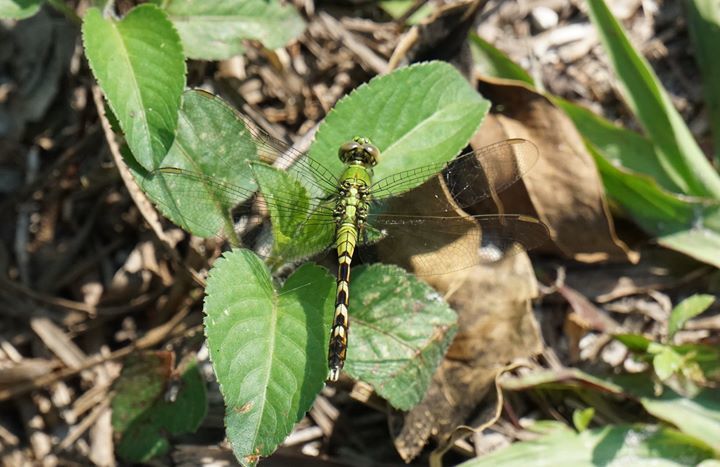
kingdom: Animalia
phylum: Arthropoda
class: Insecta
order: Odonata
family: Libellulidae
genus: Erythemis
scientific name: Erythemis simplicicollis
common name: Eastern pondhawk
